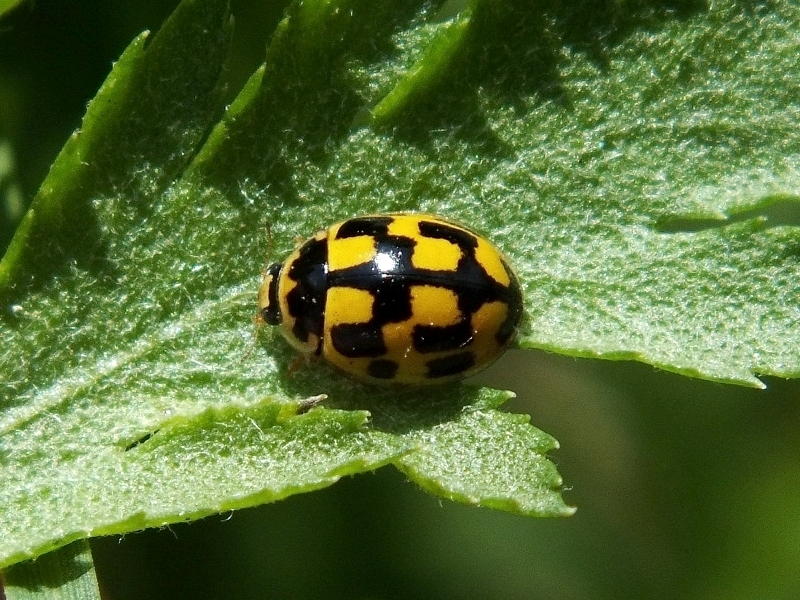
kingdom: Animalia
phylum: Arthropoda
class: Insecta
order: Coleoptera
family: Coccinellidae
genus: Propylaea
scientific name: Propylaea quatuordecimpunctata
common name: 14-spotted ladybird beetle
